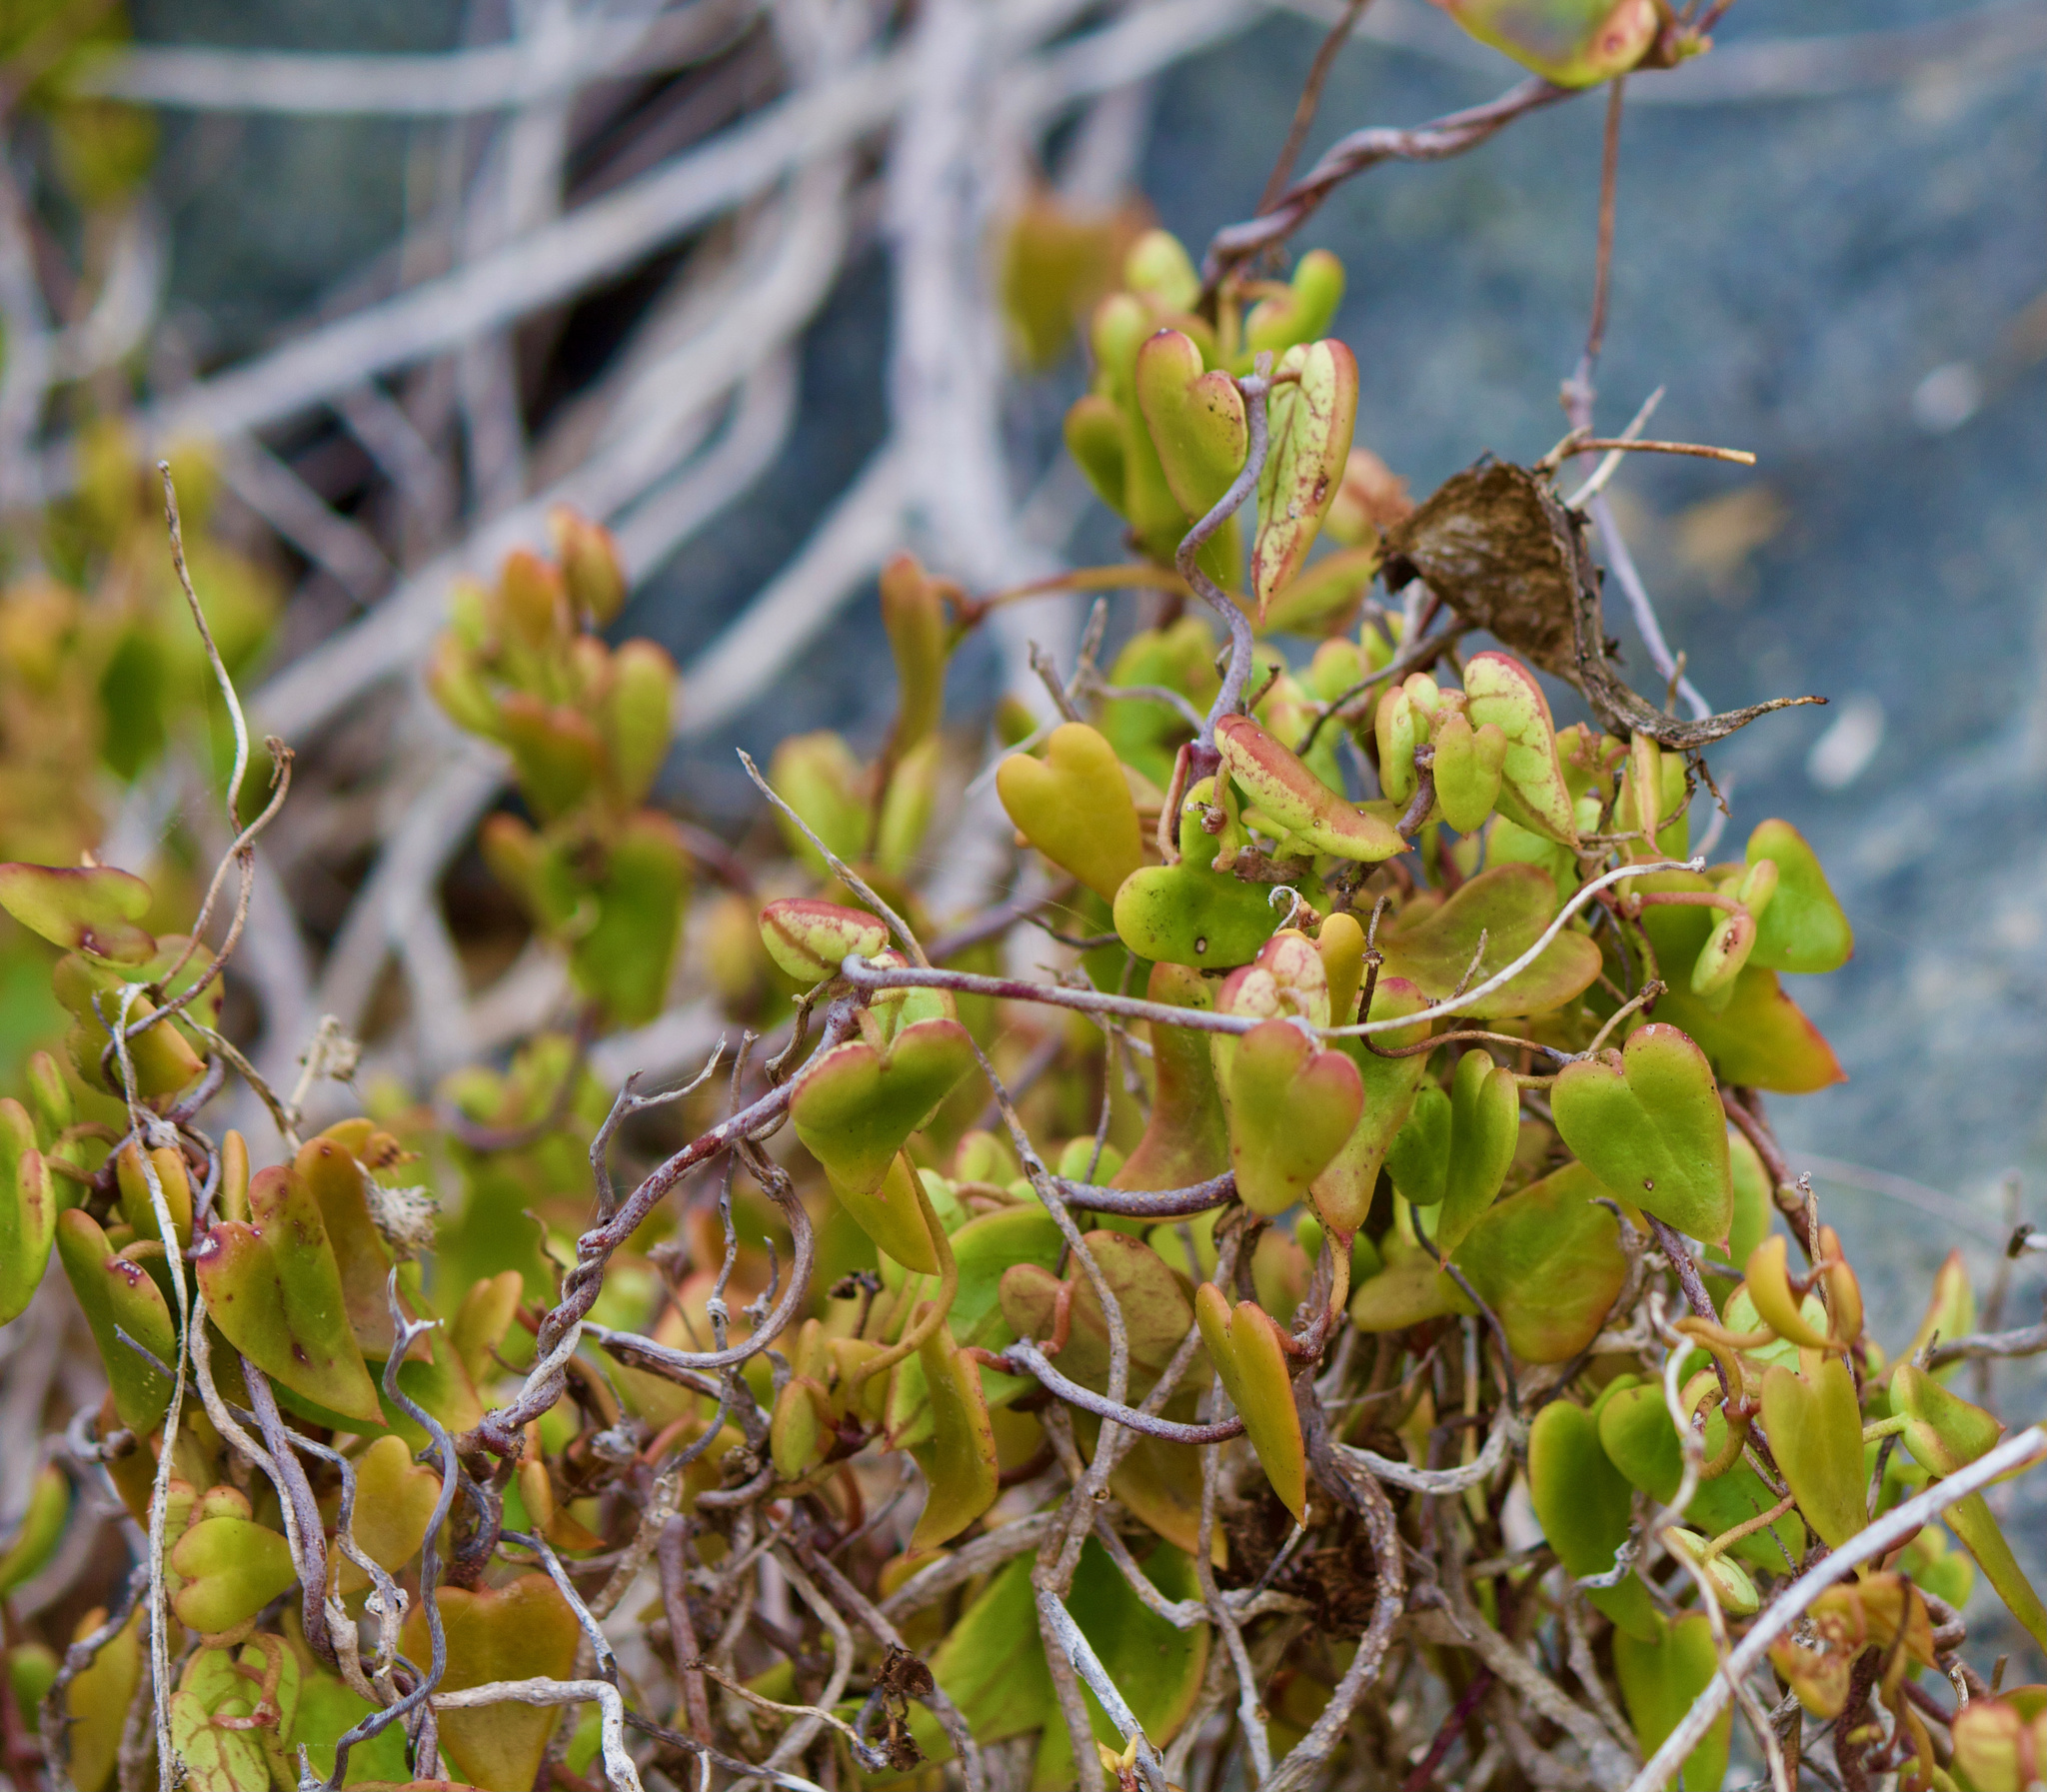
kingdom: Plantae
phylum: Tracheophyta
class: Magnoliopsida
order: Gentianales
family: Apocynaceae
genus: Diplolepis
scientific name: Diplolepis boerhaviifolia
